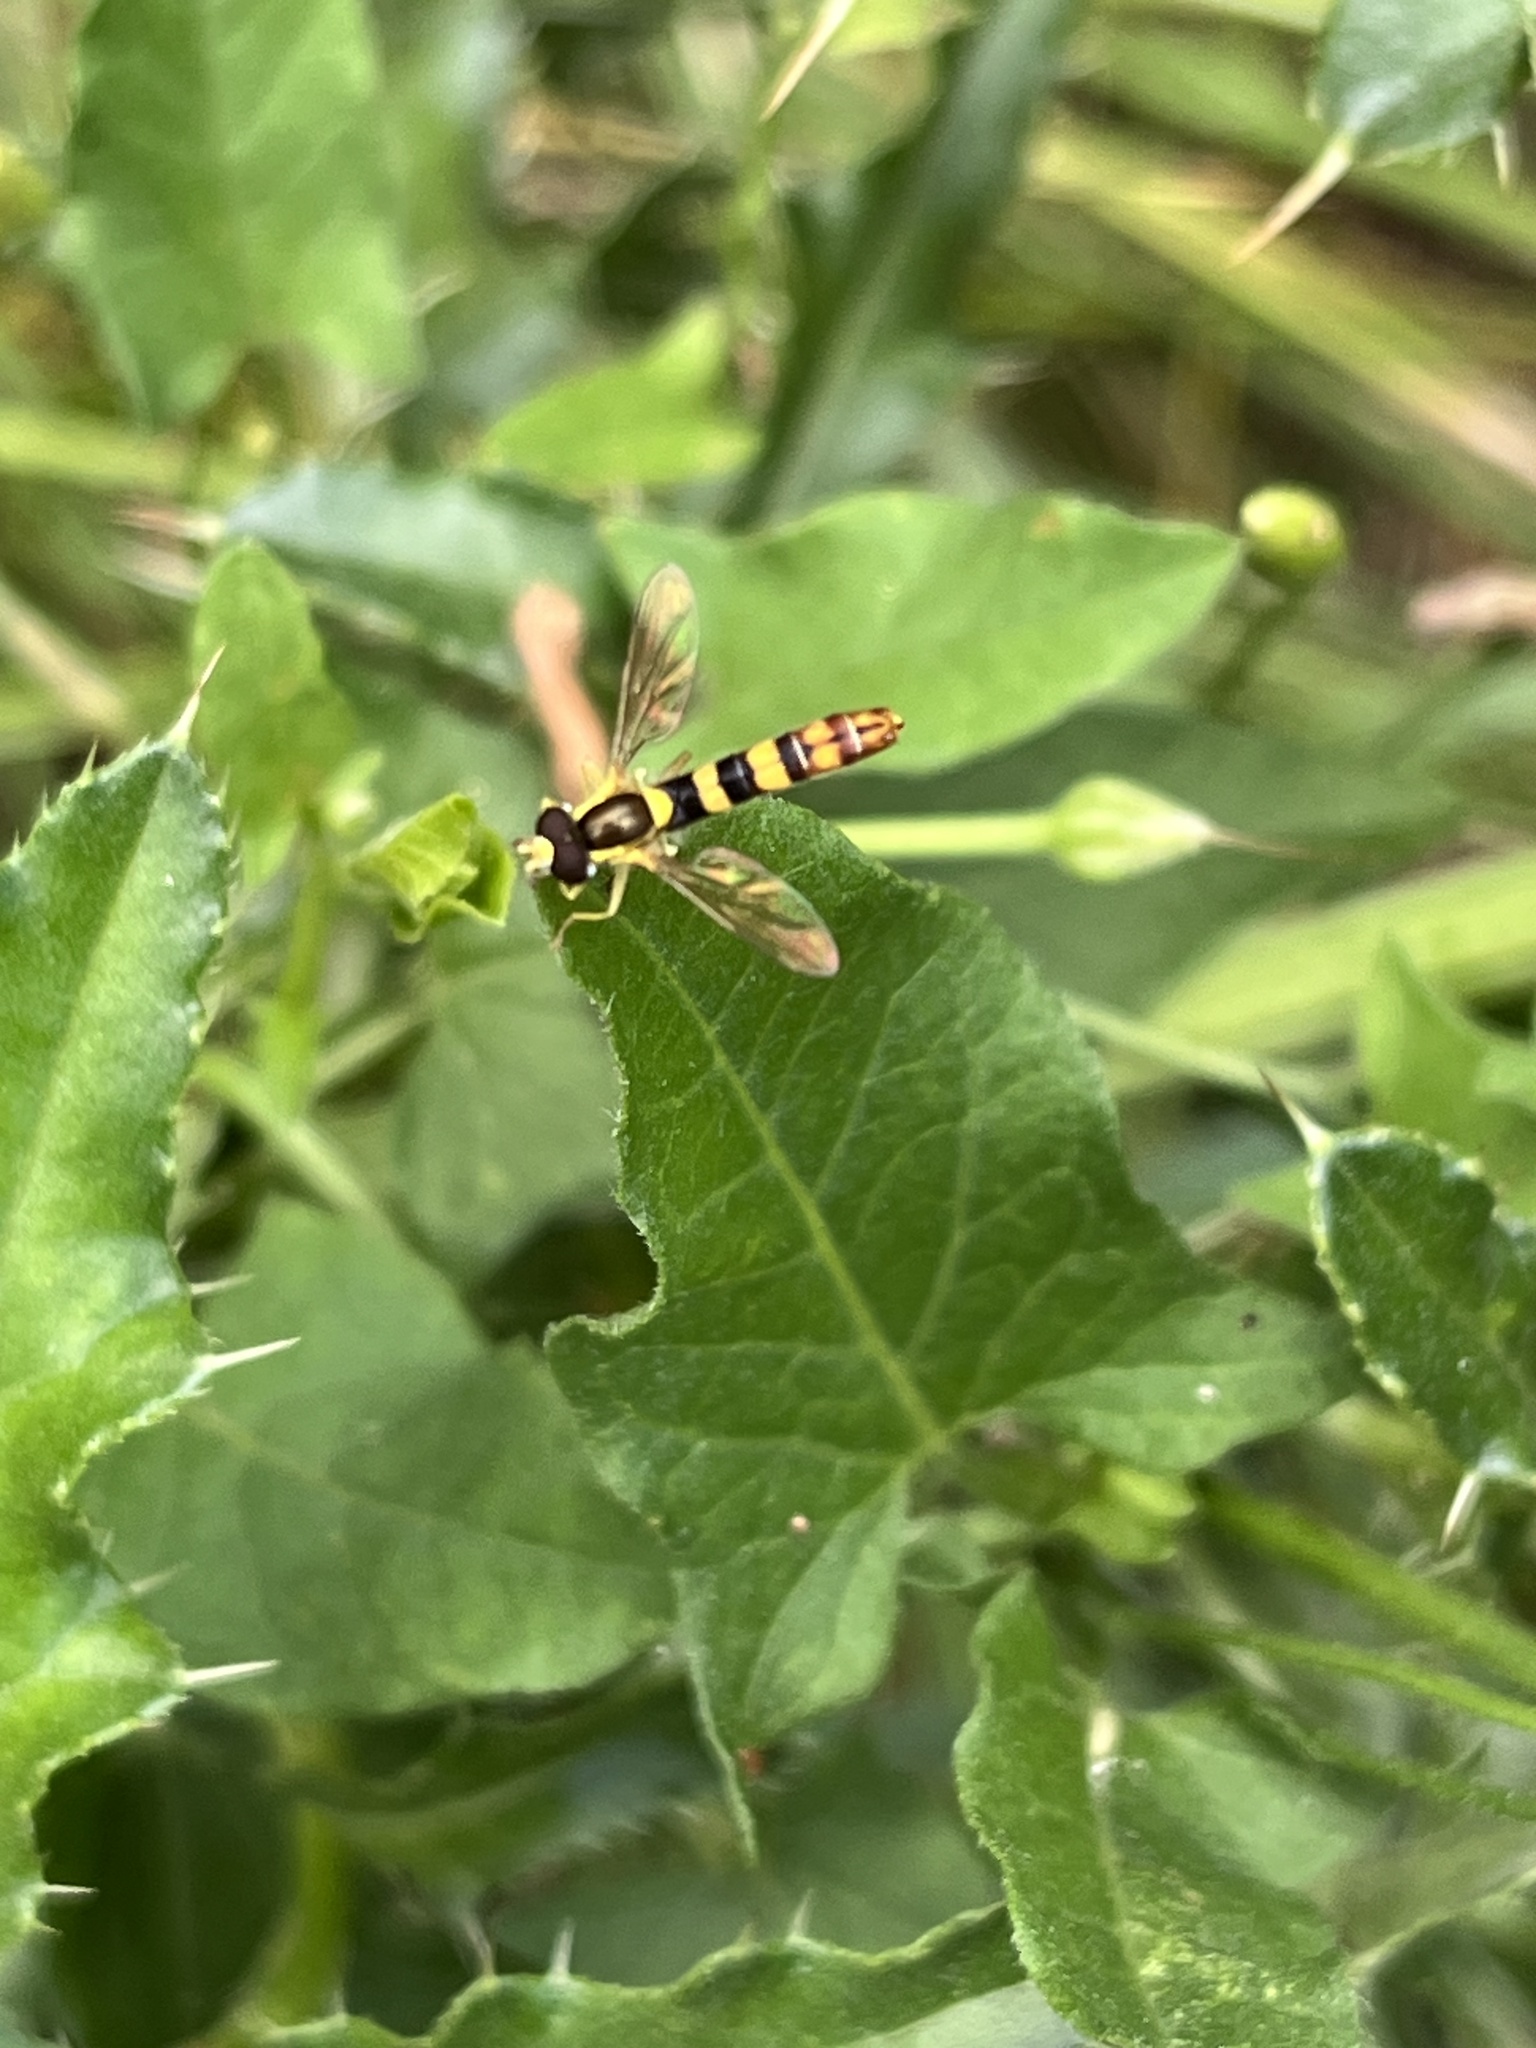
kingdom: Animalia
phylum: Arthropoda
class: Insecta
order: Diptera
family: Syrphidae
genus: Sphaerophoria
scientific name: Sphaerophoria scripta
